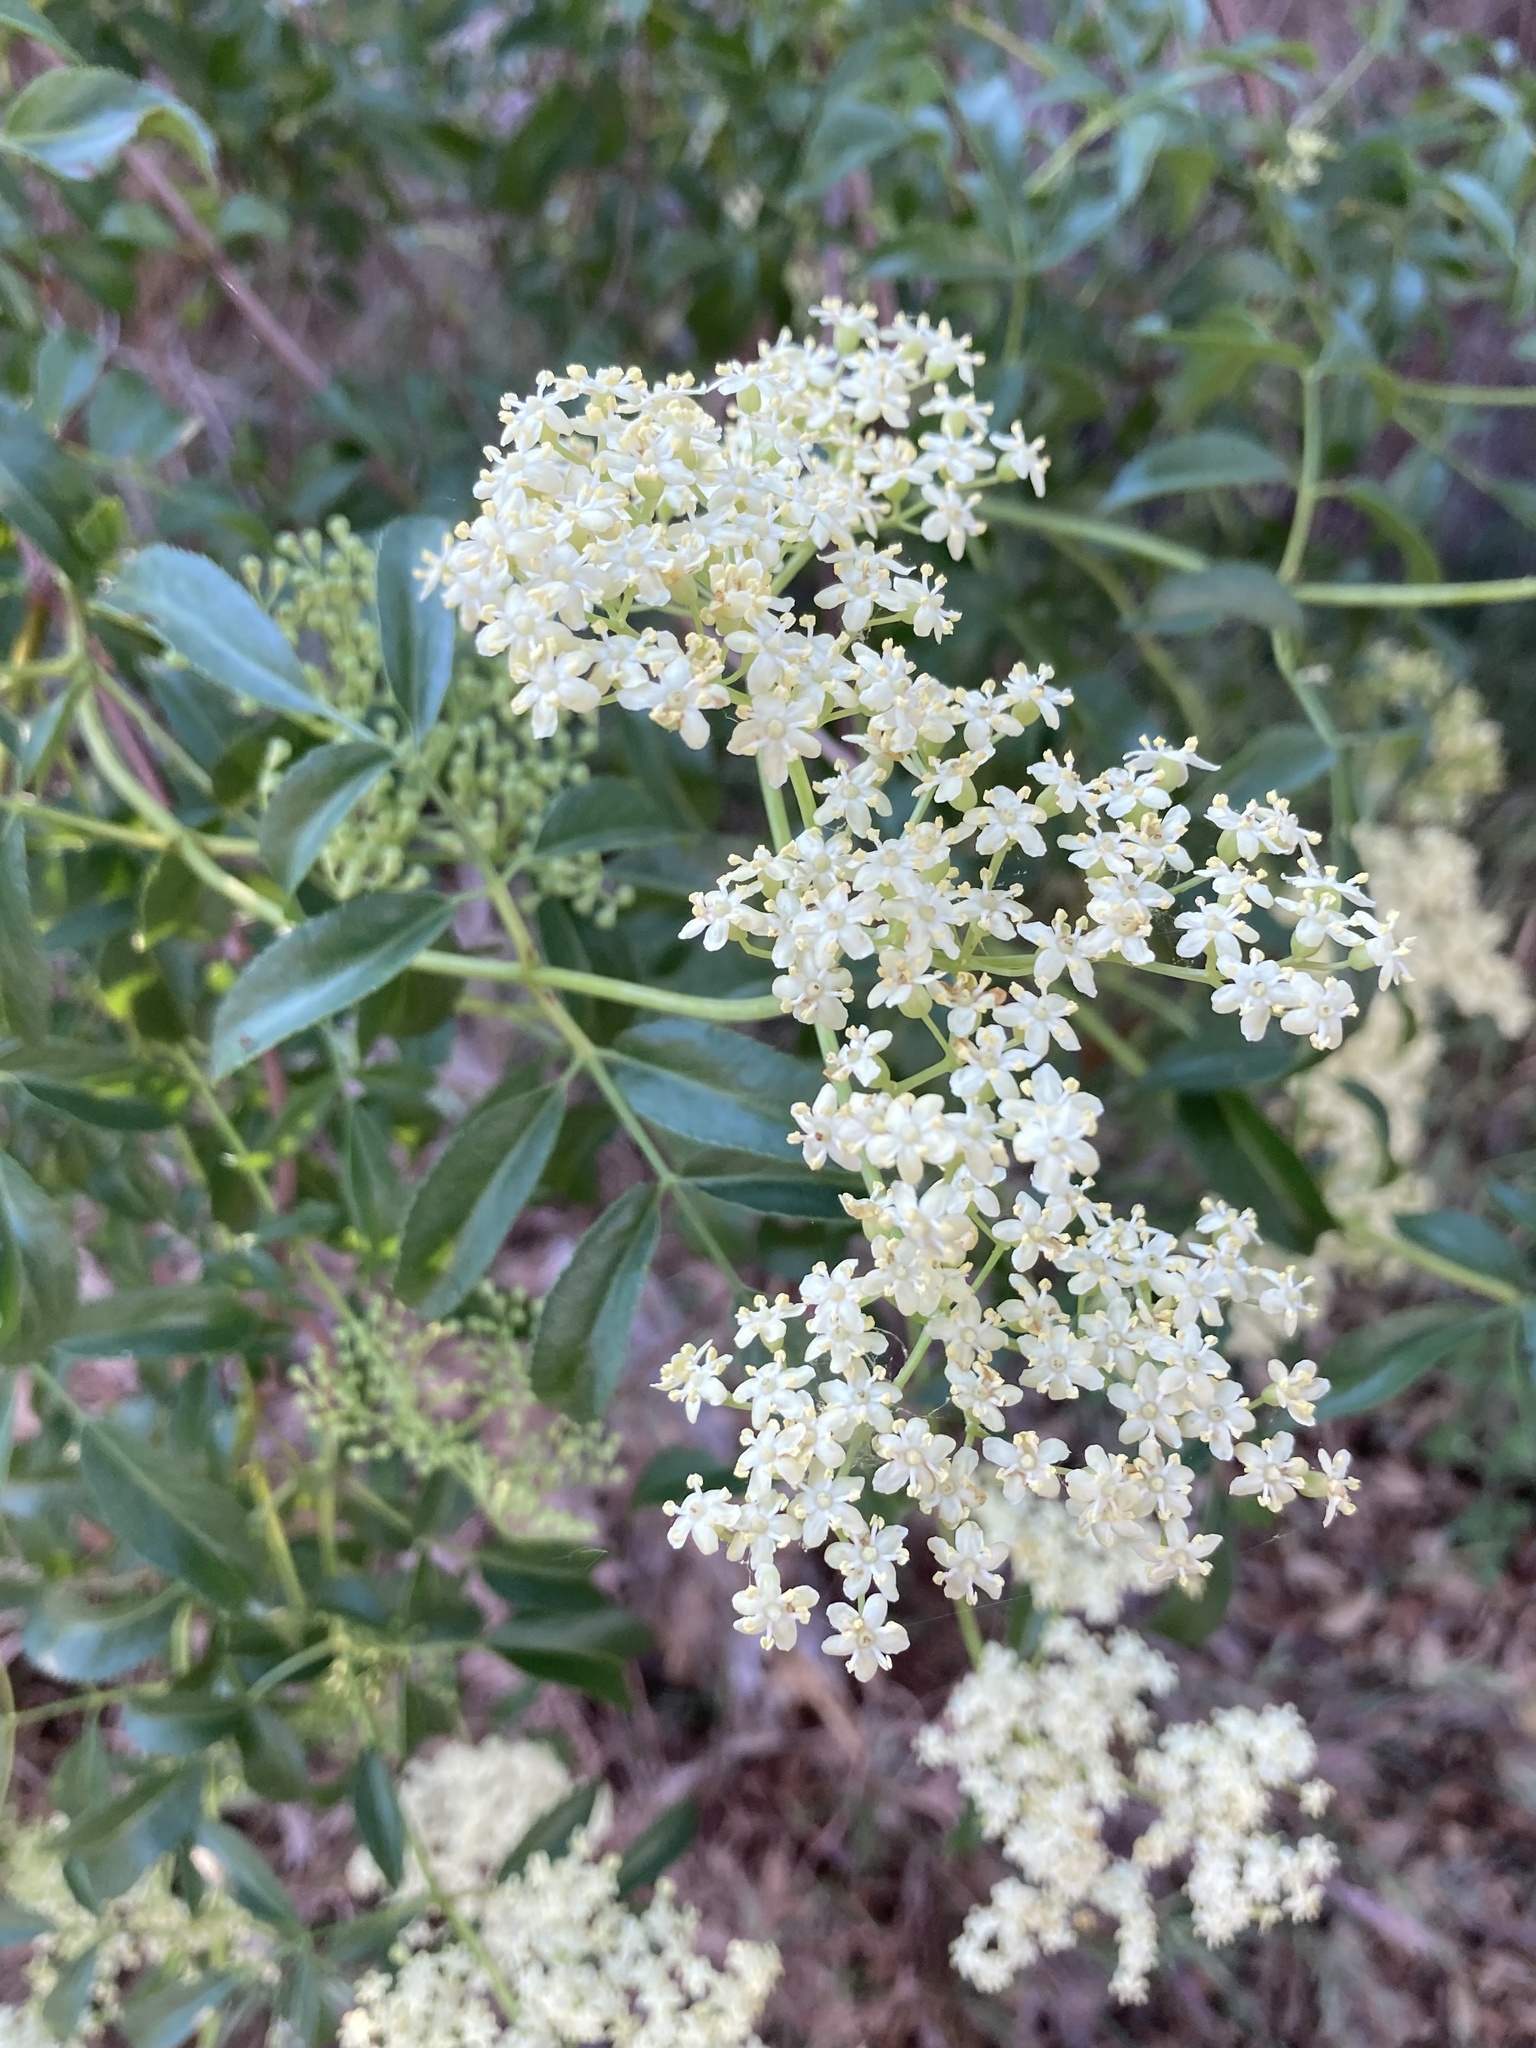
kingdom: Plantae
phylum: Tracheophyta
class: Magnoliopsida
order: Dipsacales
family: Viburnaceae
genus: Sambucus
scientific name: Sambucus cerulea
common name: Blue elder
